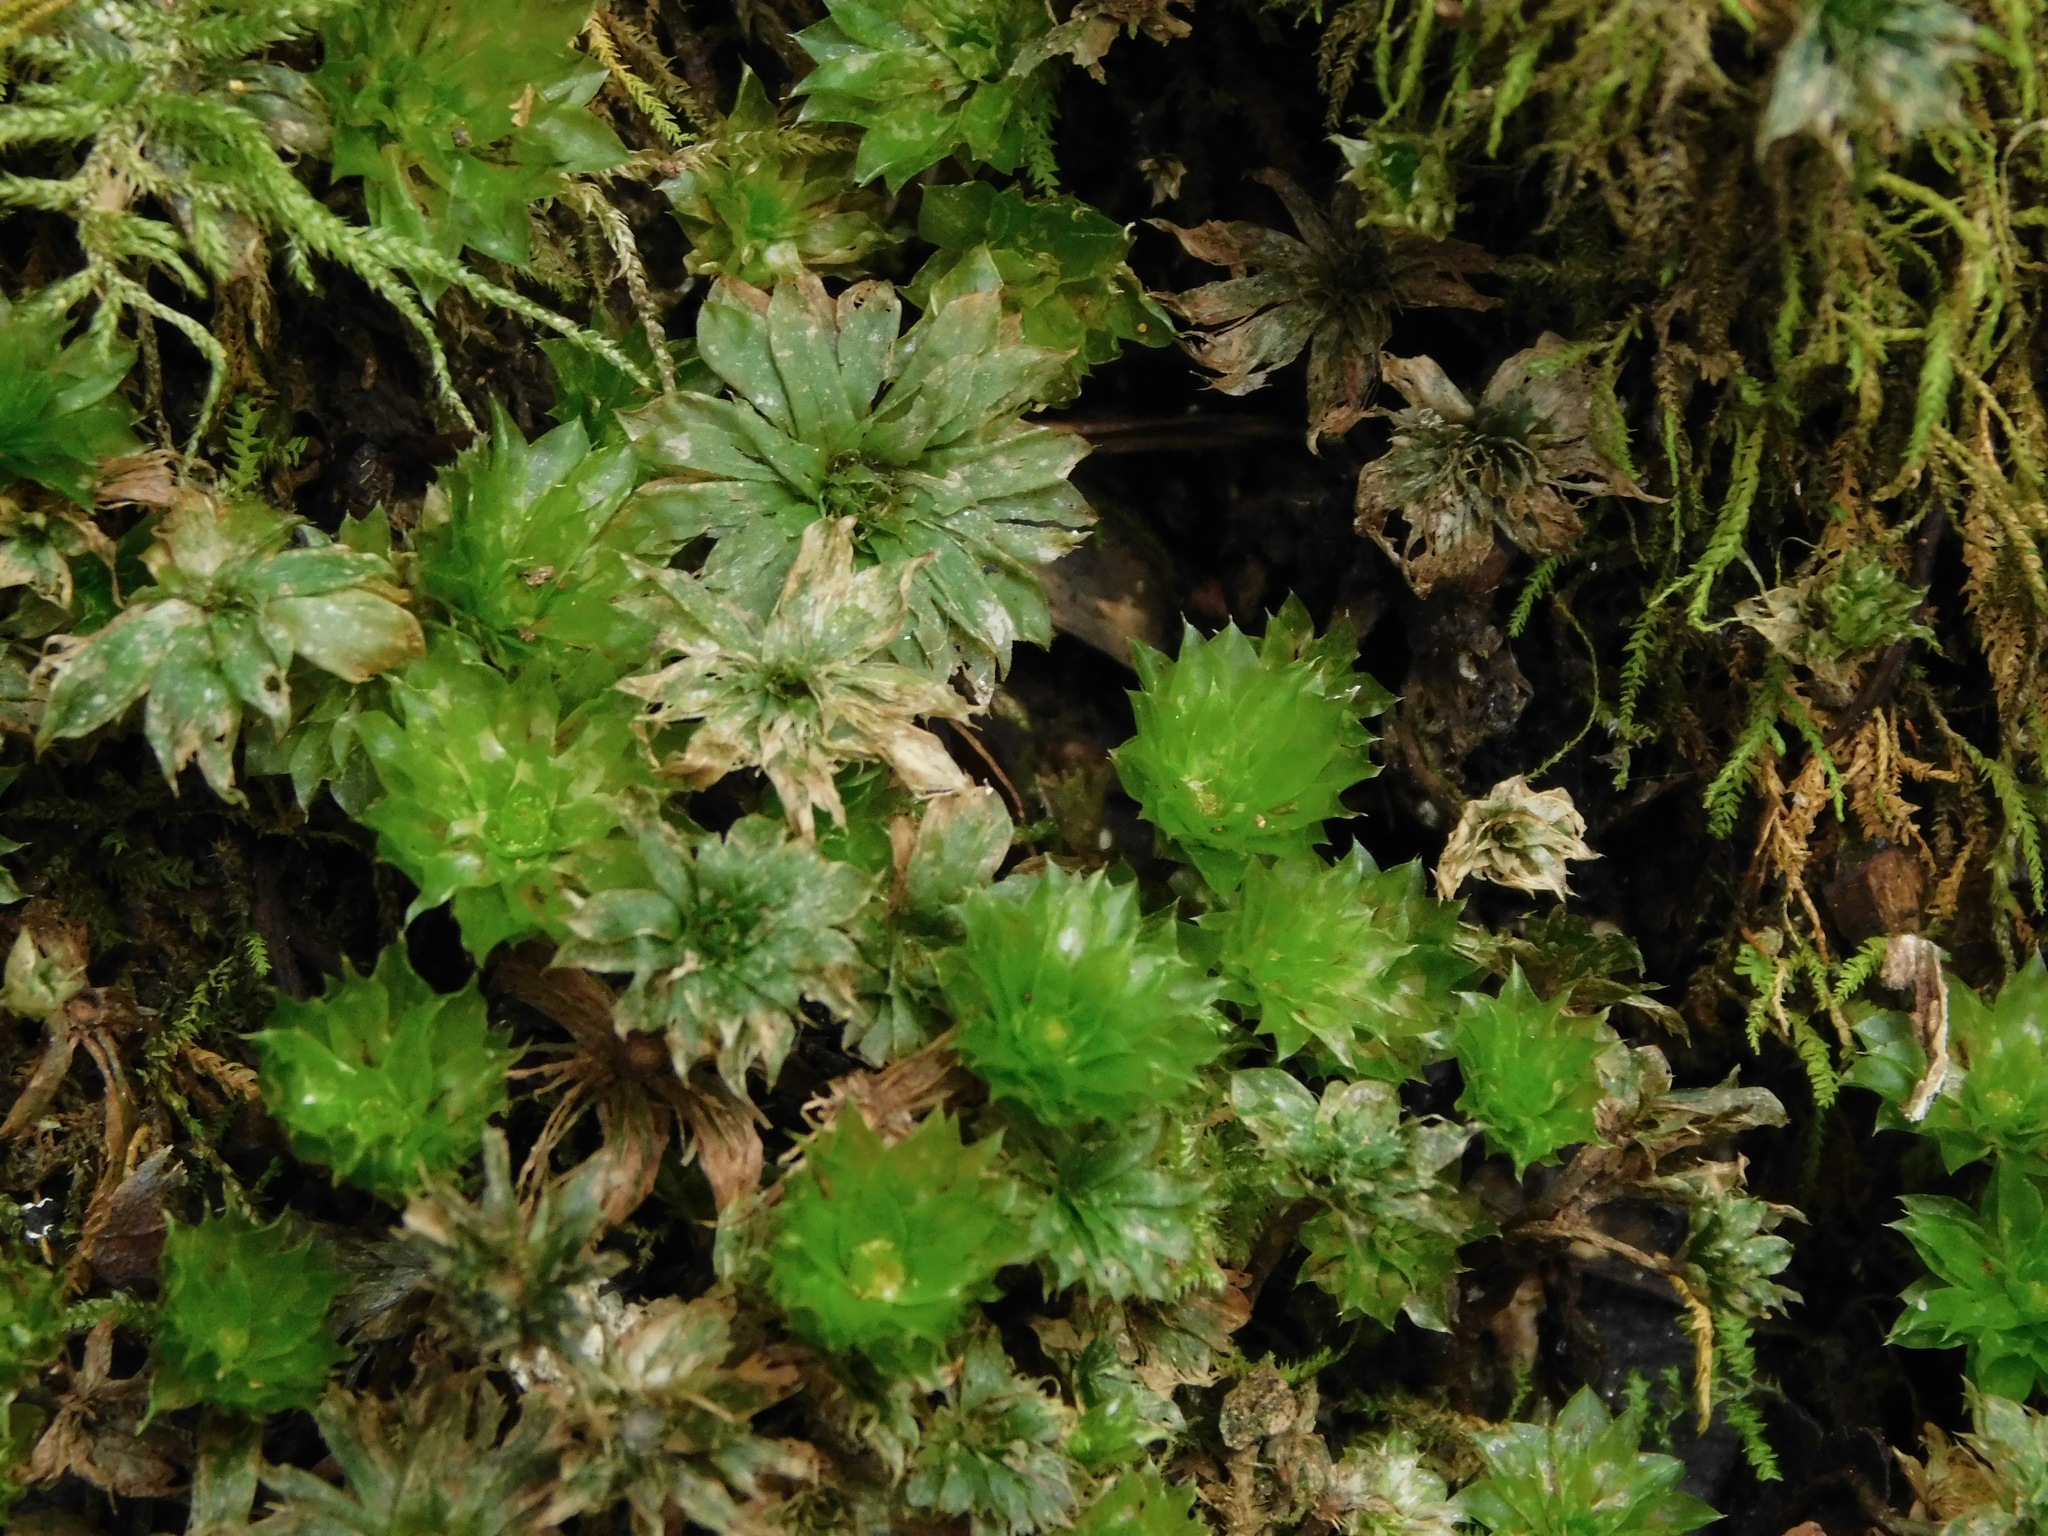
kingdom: Plantae
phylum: Bryophyta
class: Bryopsida
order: Bryales
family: Bryaceae
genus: Rhodobryum
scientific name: Rhodobryum ontariense
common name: Ontario rhodobryum moss
